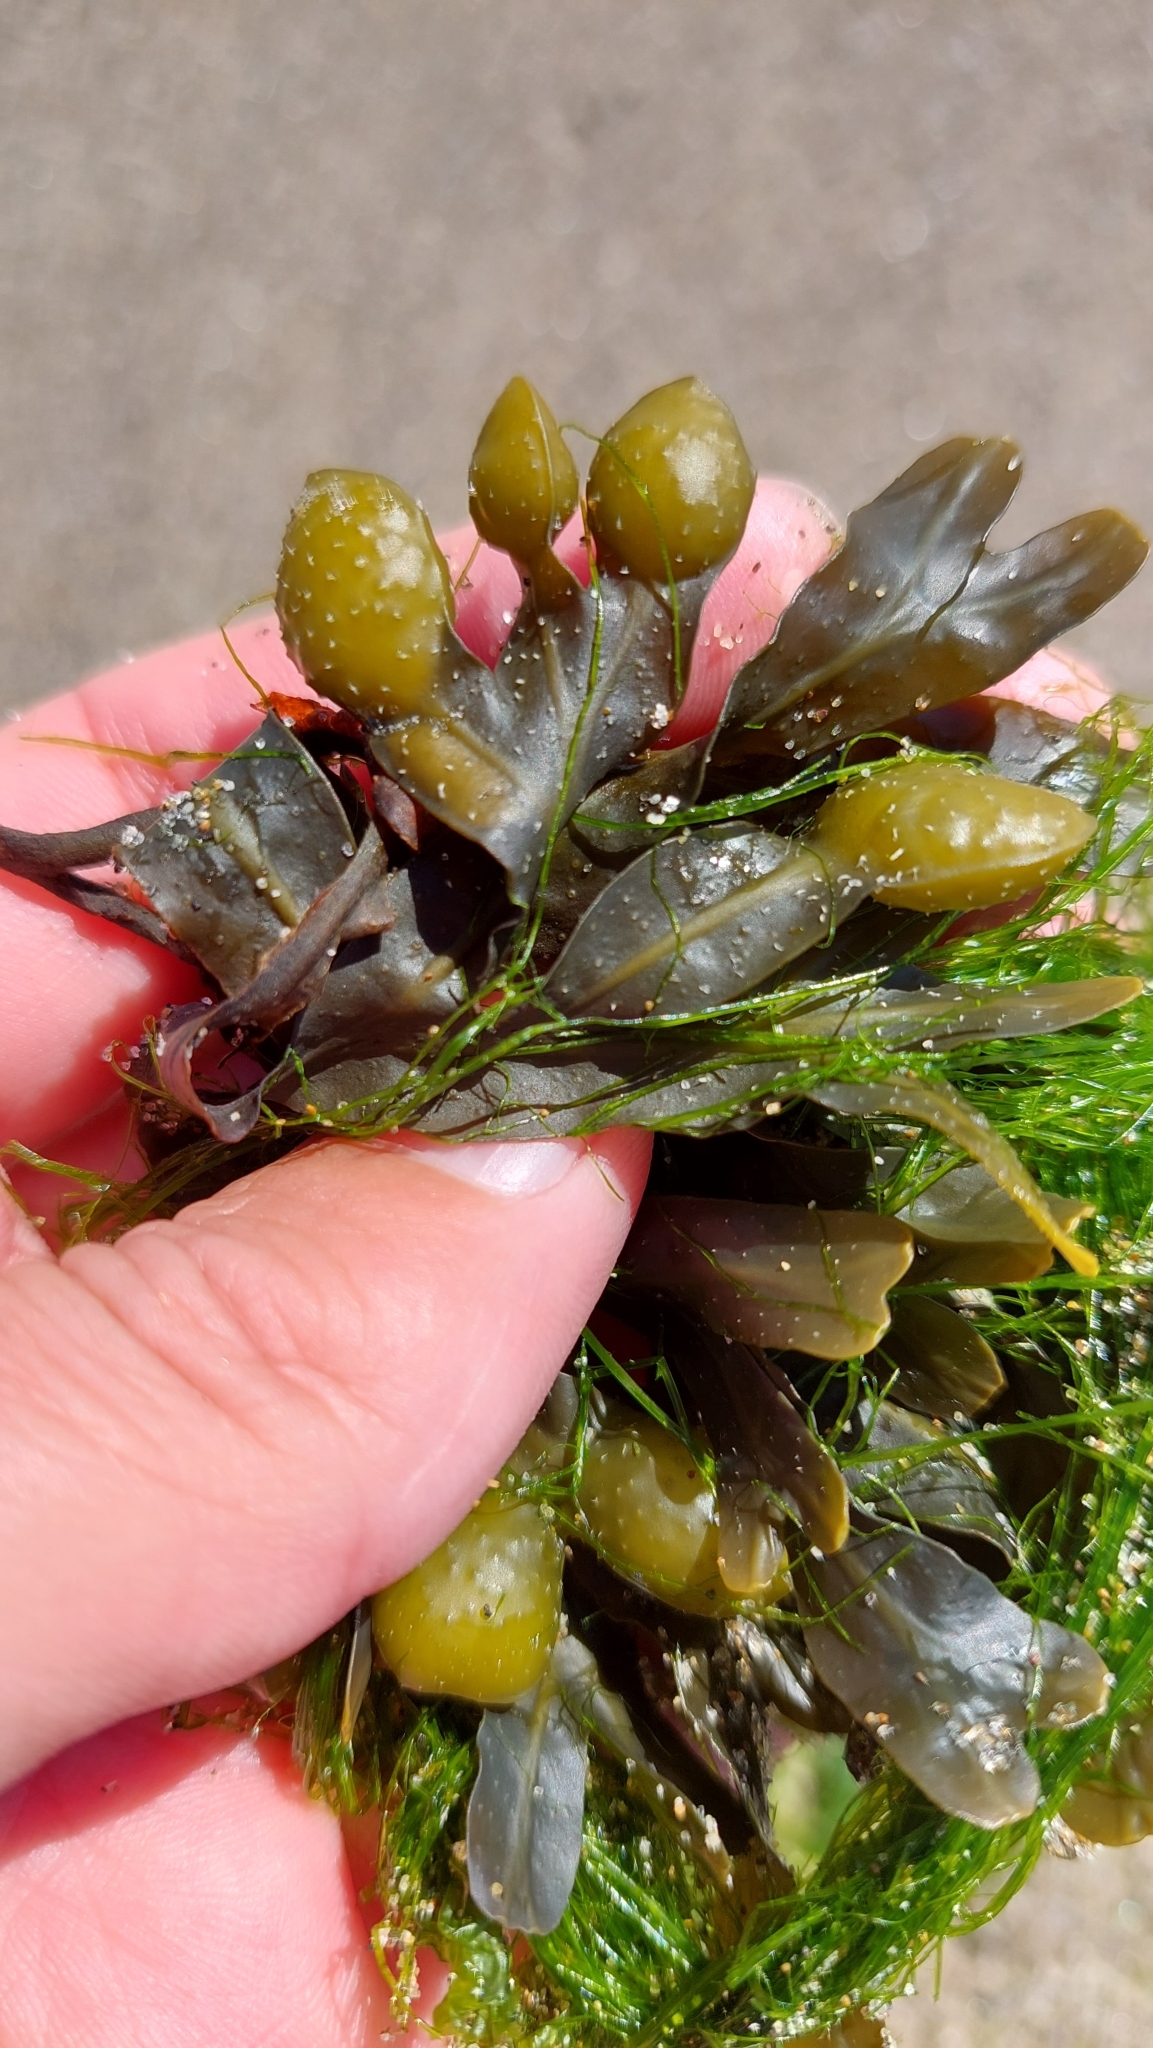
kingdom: Chromista
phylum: Ochrophyta
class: Phaeophyceae
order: Fucales
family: Fucaceae
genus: Fucus
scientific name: Fucus distichus
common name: Rockweed
